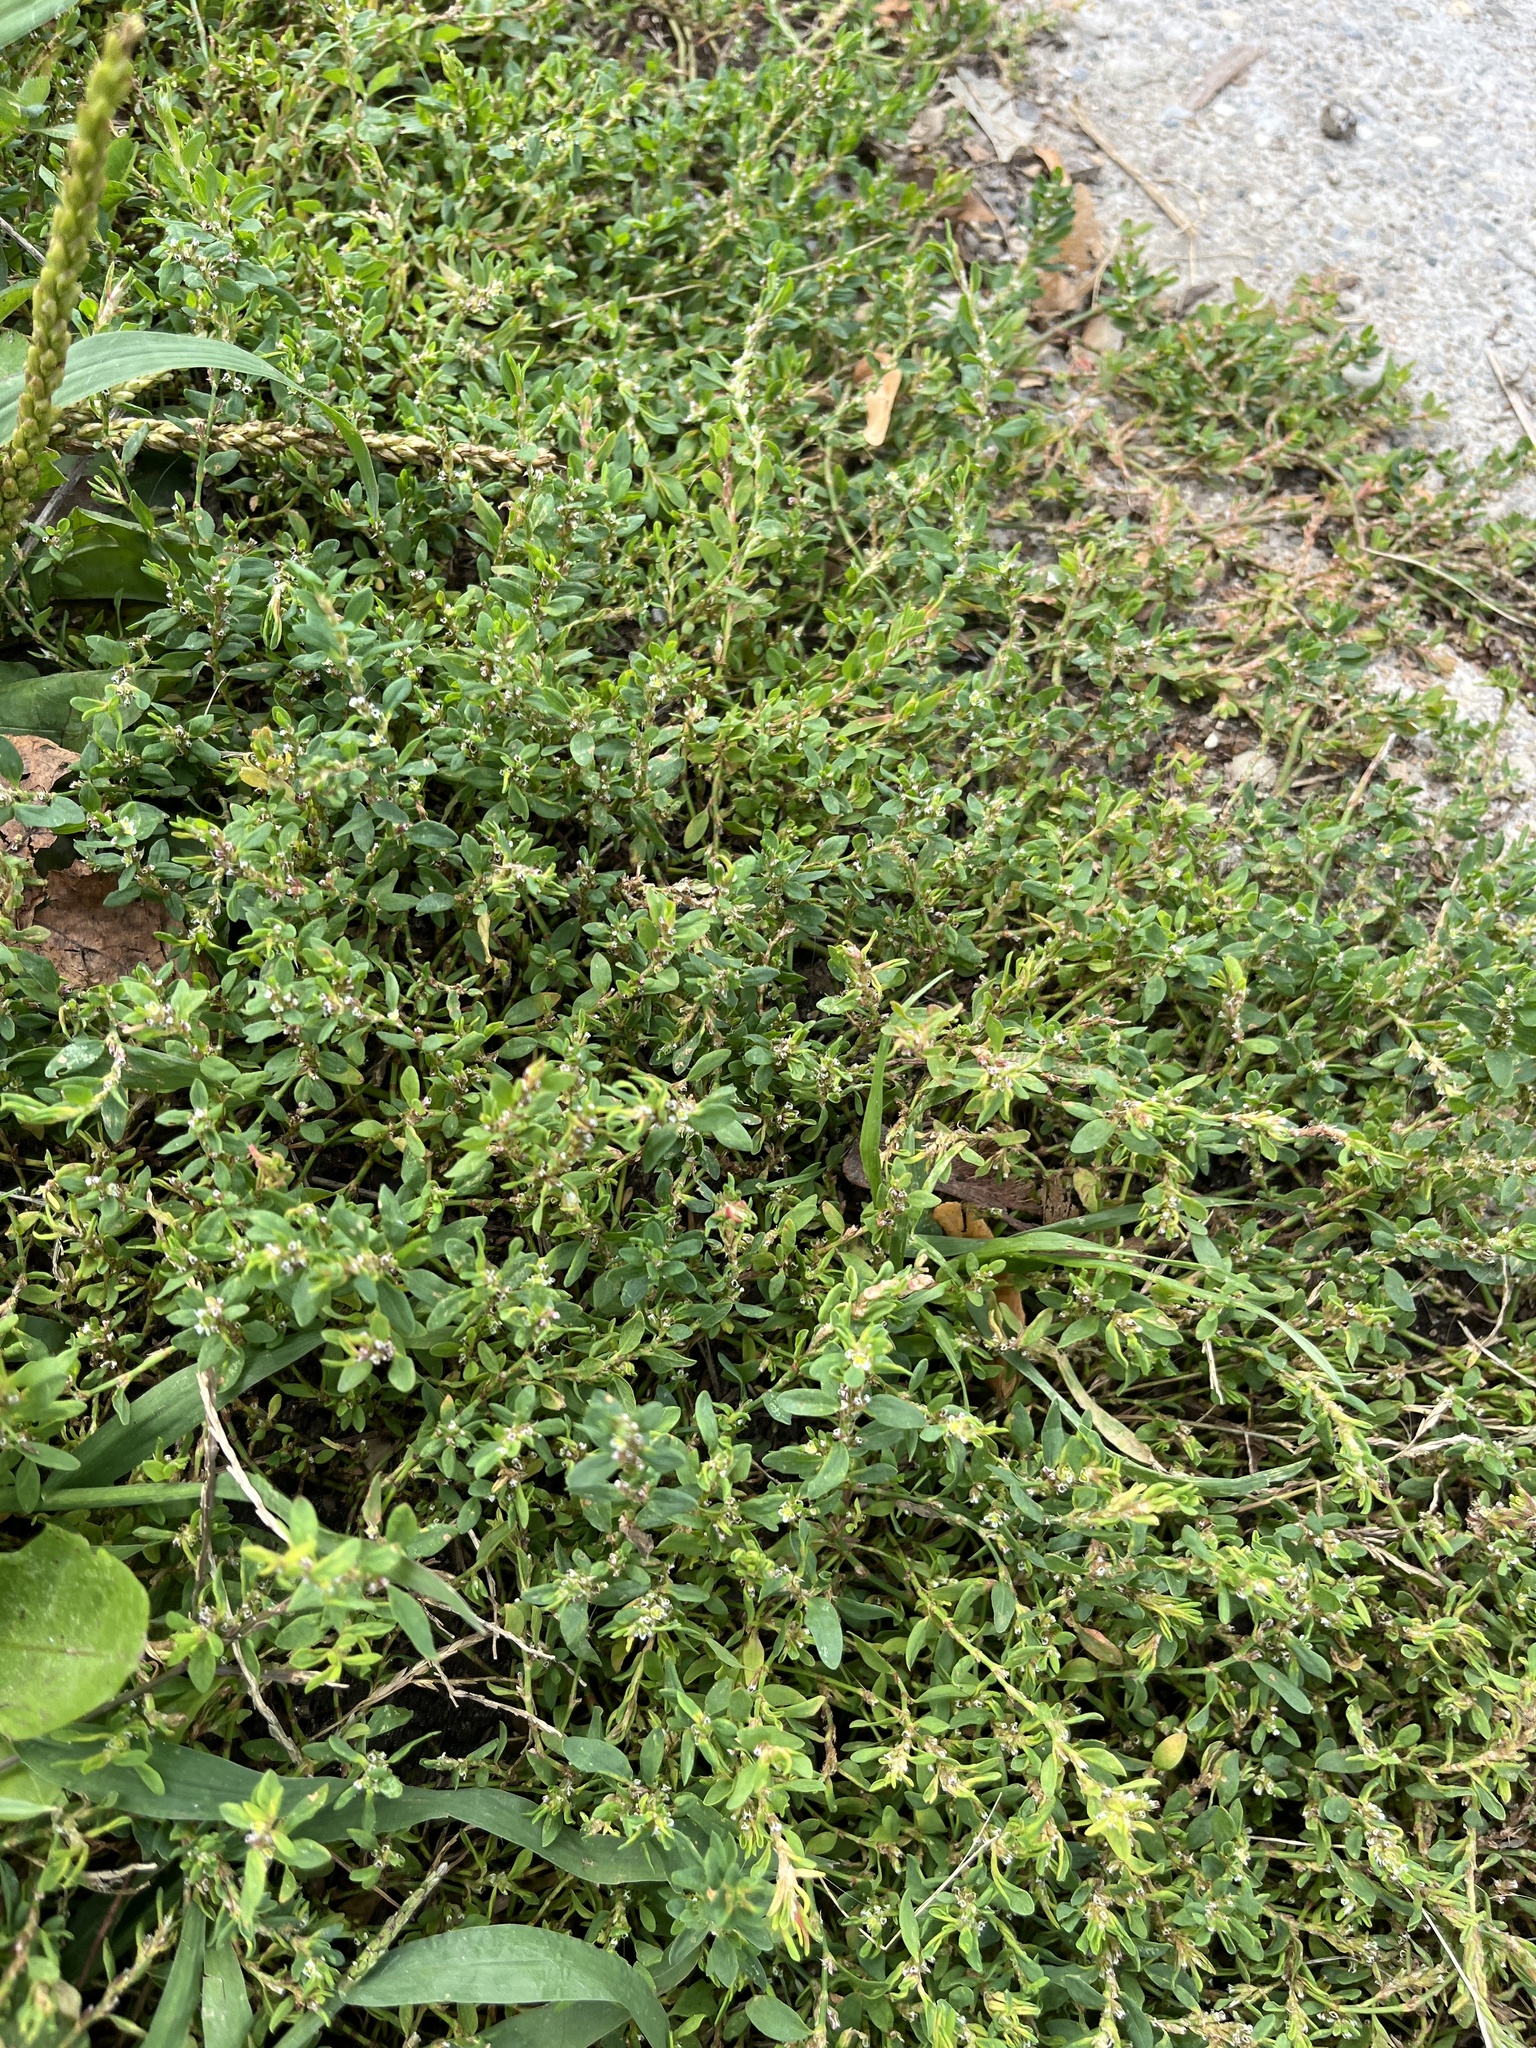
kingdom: Plantae
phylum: Tracheophyta
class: Magnoliopsida
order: Caryophyllales
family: Polygonaceae
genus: Polygonum
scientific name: Polygonum aviculare
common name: Prostrate knotweed
